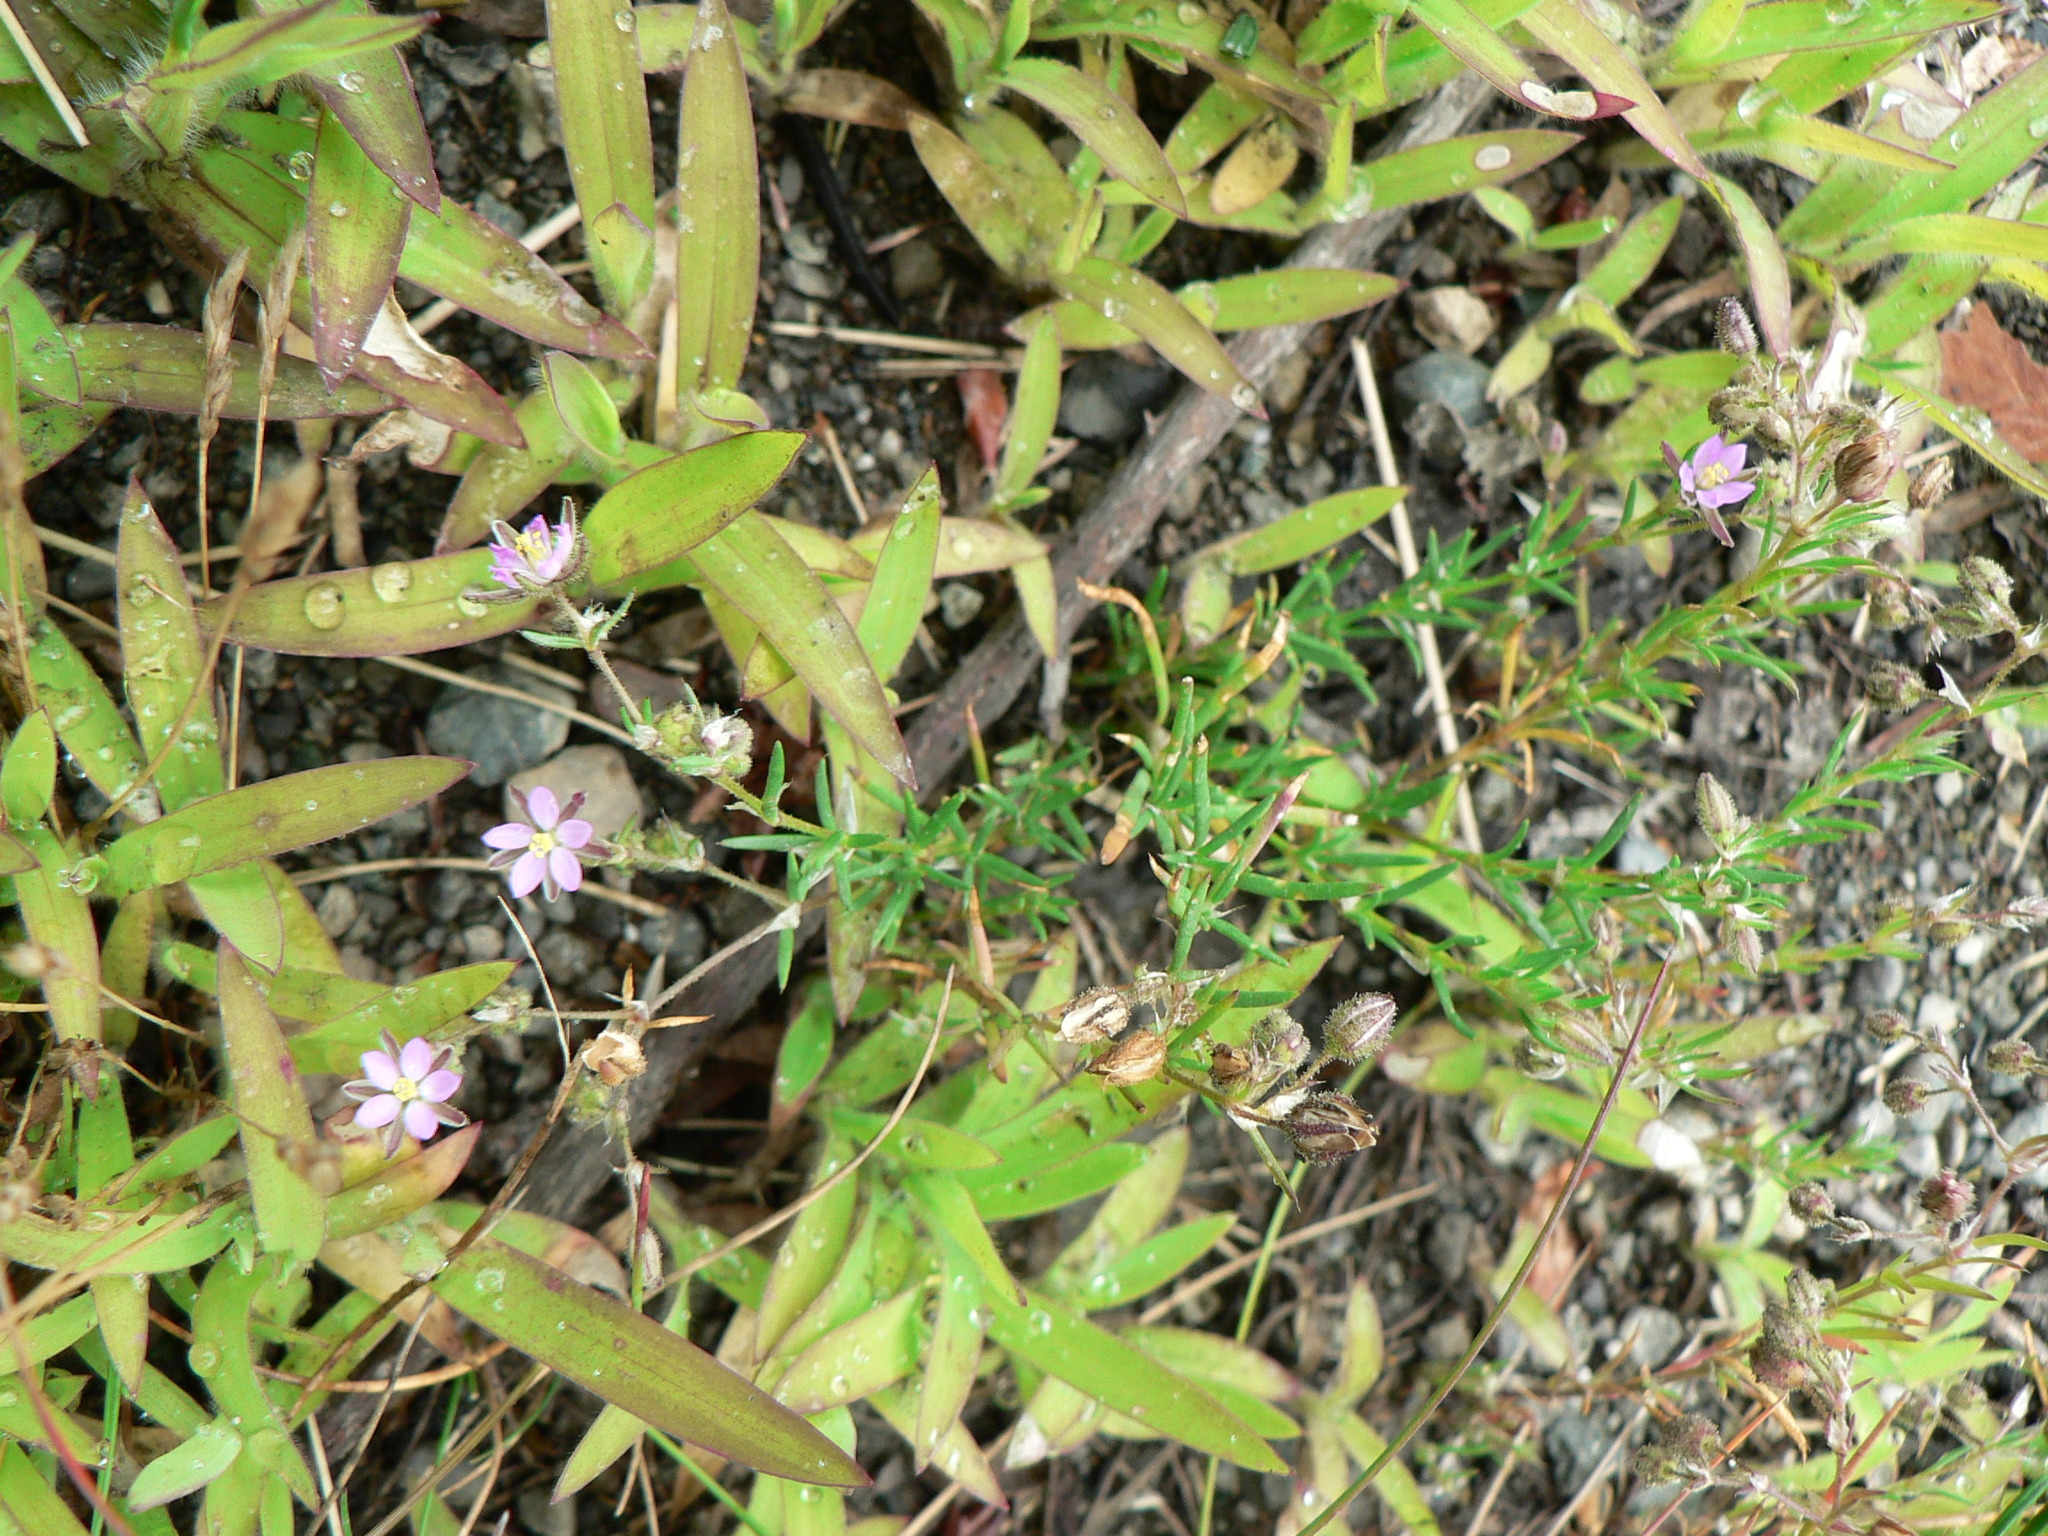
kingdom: Plantae
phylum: Tracheophyta
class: Magnoliopsida
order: Caryophyllales
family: Caryophyllaceae
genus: Spergularia
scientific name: Spergularia rubra
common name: Red sand-spurrey
